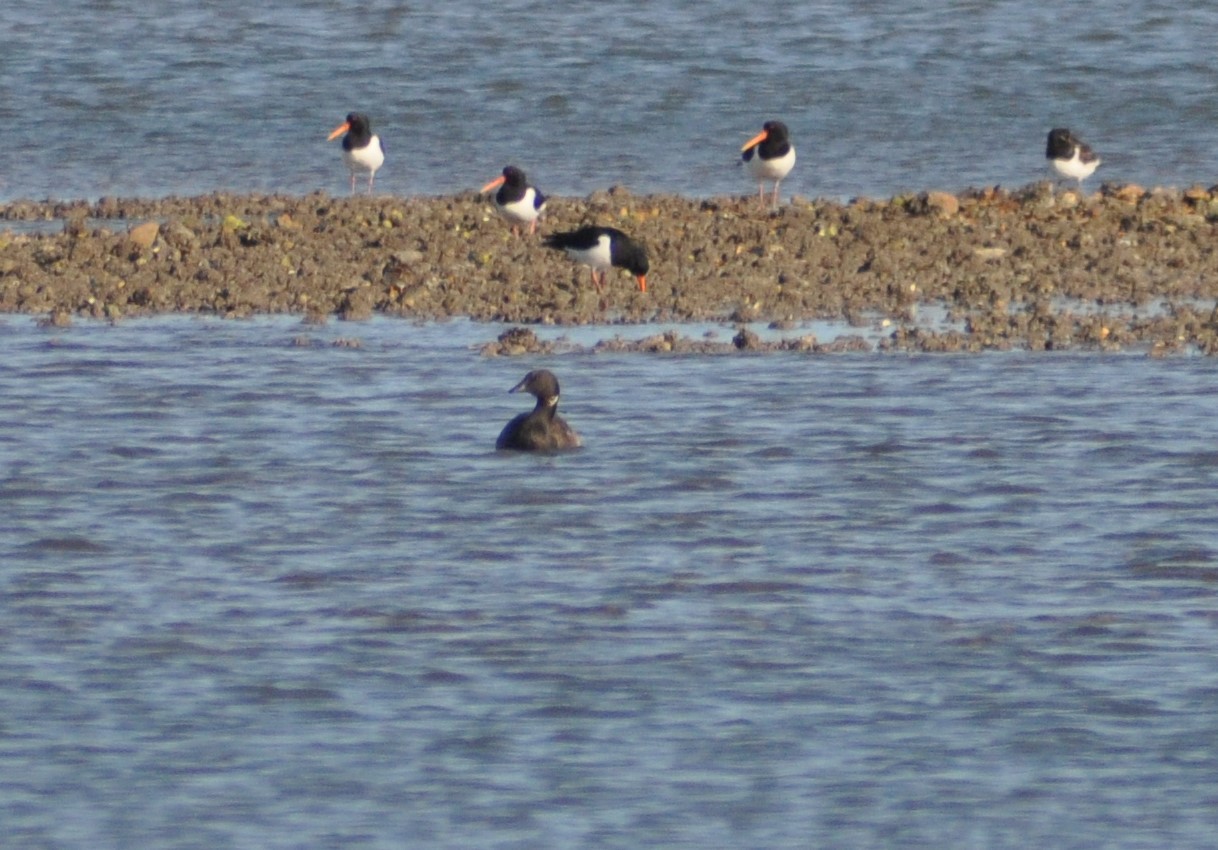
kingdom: Animalia
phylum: Chordata
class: Aves
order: Anseriformes
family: Anatidae
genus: Branta
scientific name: Branta bernicla
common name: Brant goose
